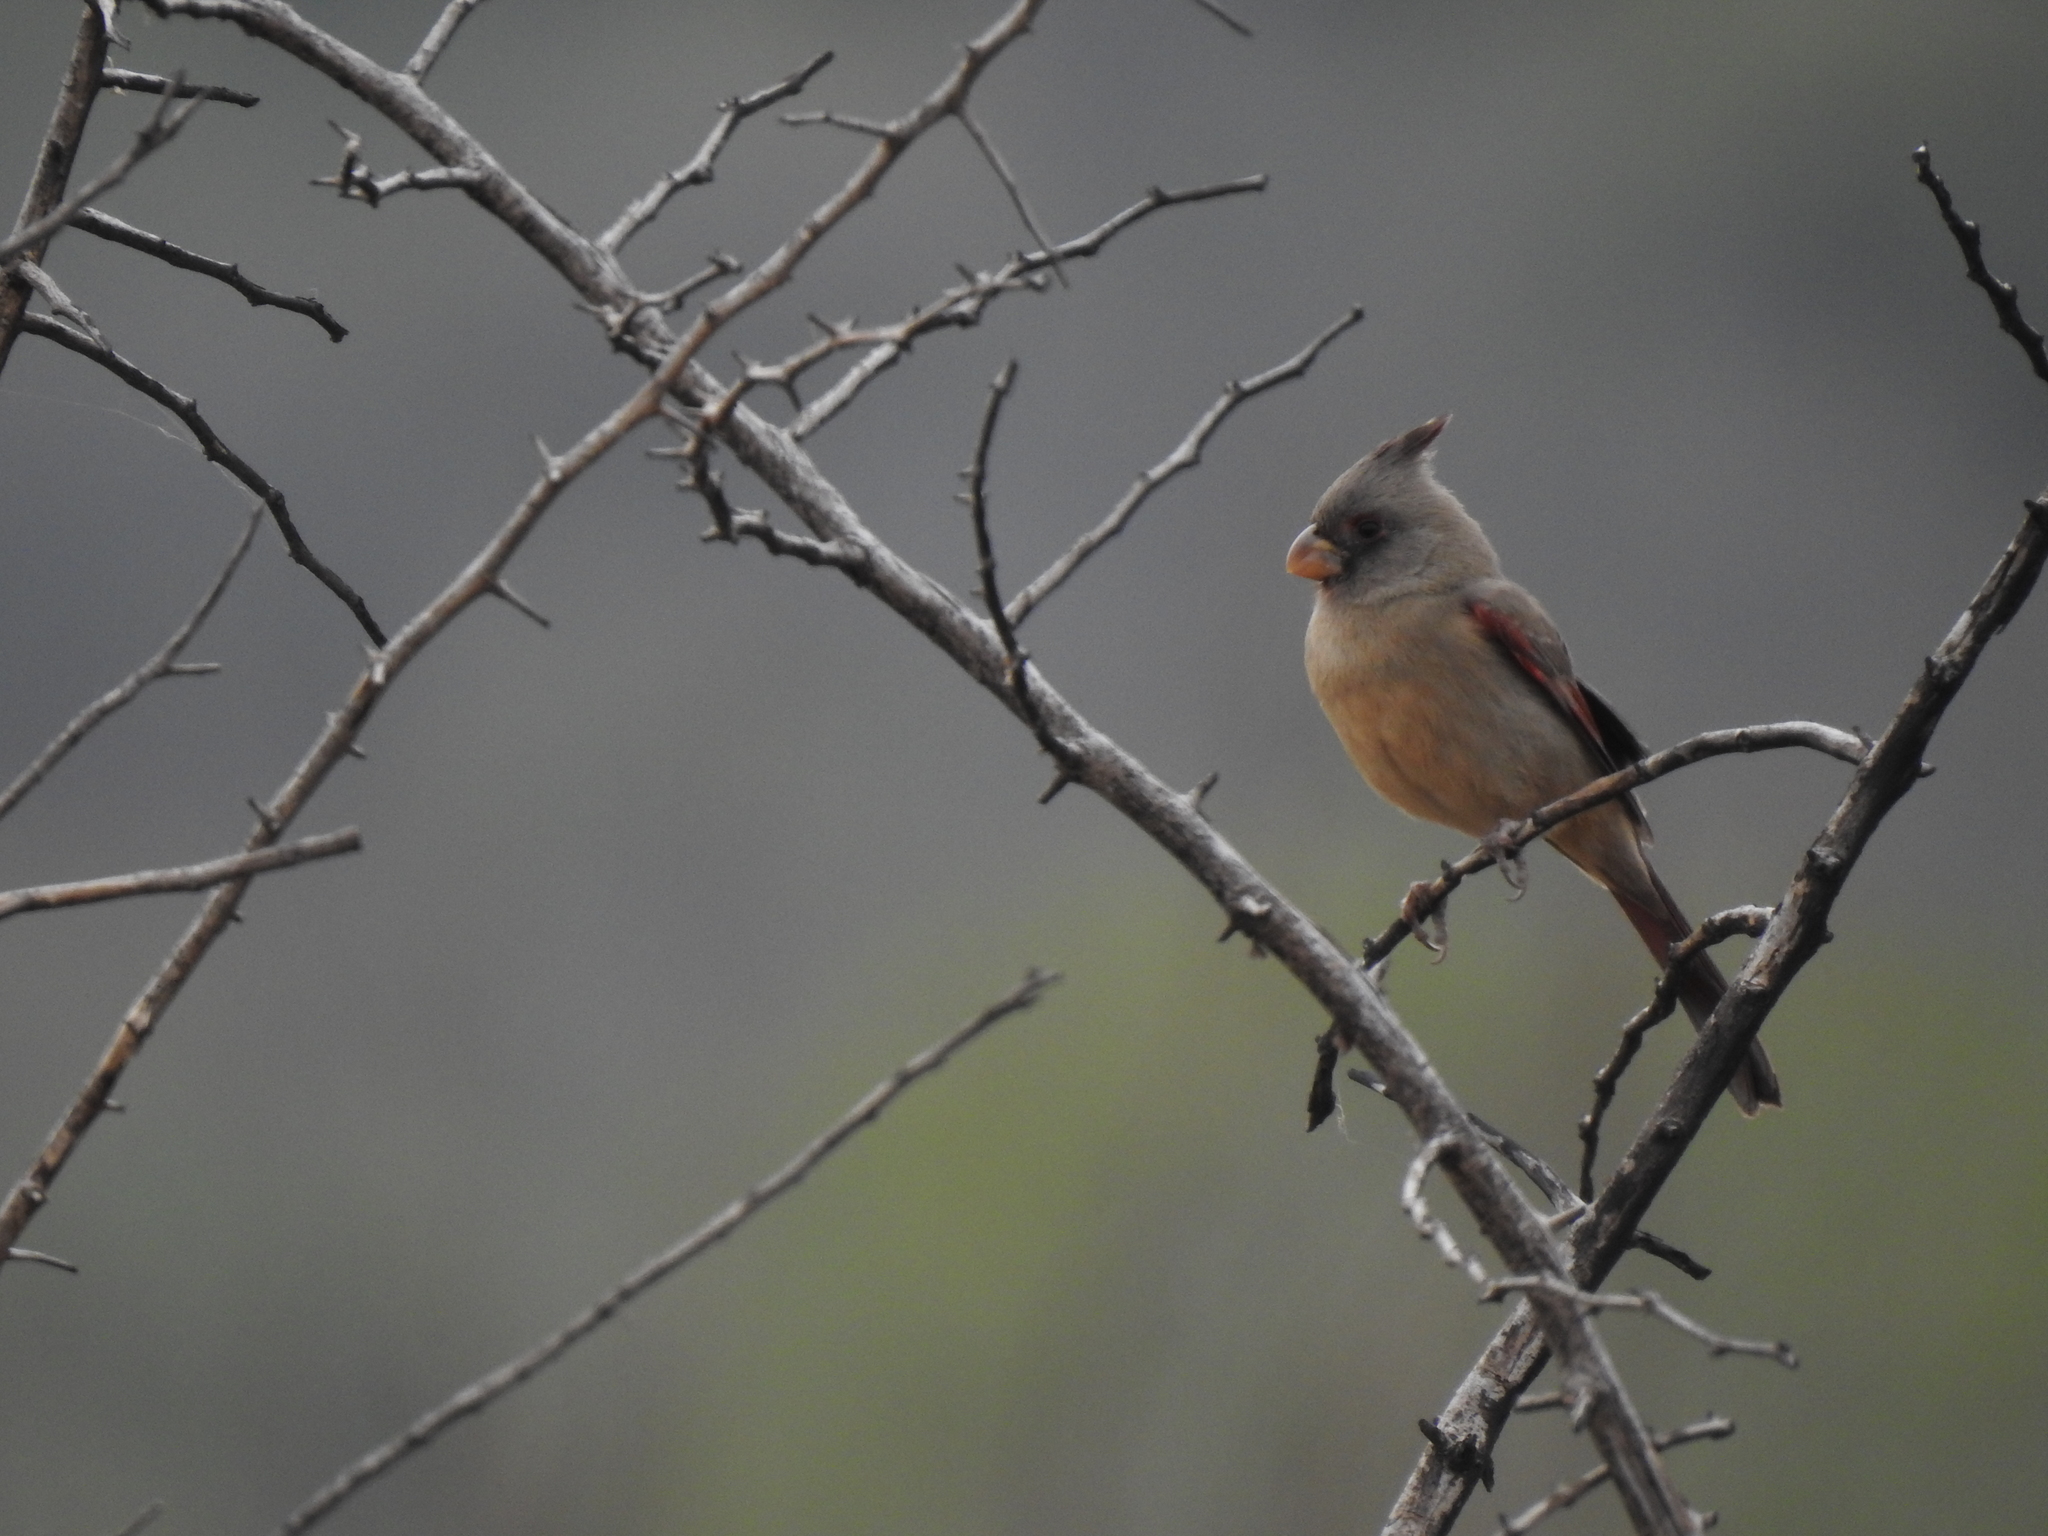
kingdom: Animalia
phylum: Chordata
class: Aves
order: Passeriformes
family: Cardinalidae
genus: Cardinalis
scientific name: Cardinalis sinuatus
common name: Pyrrhuloxia
